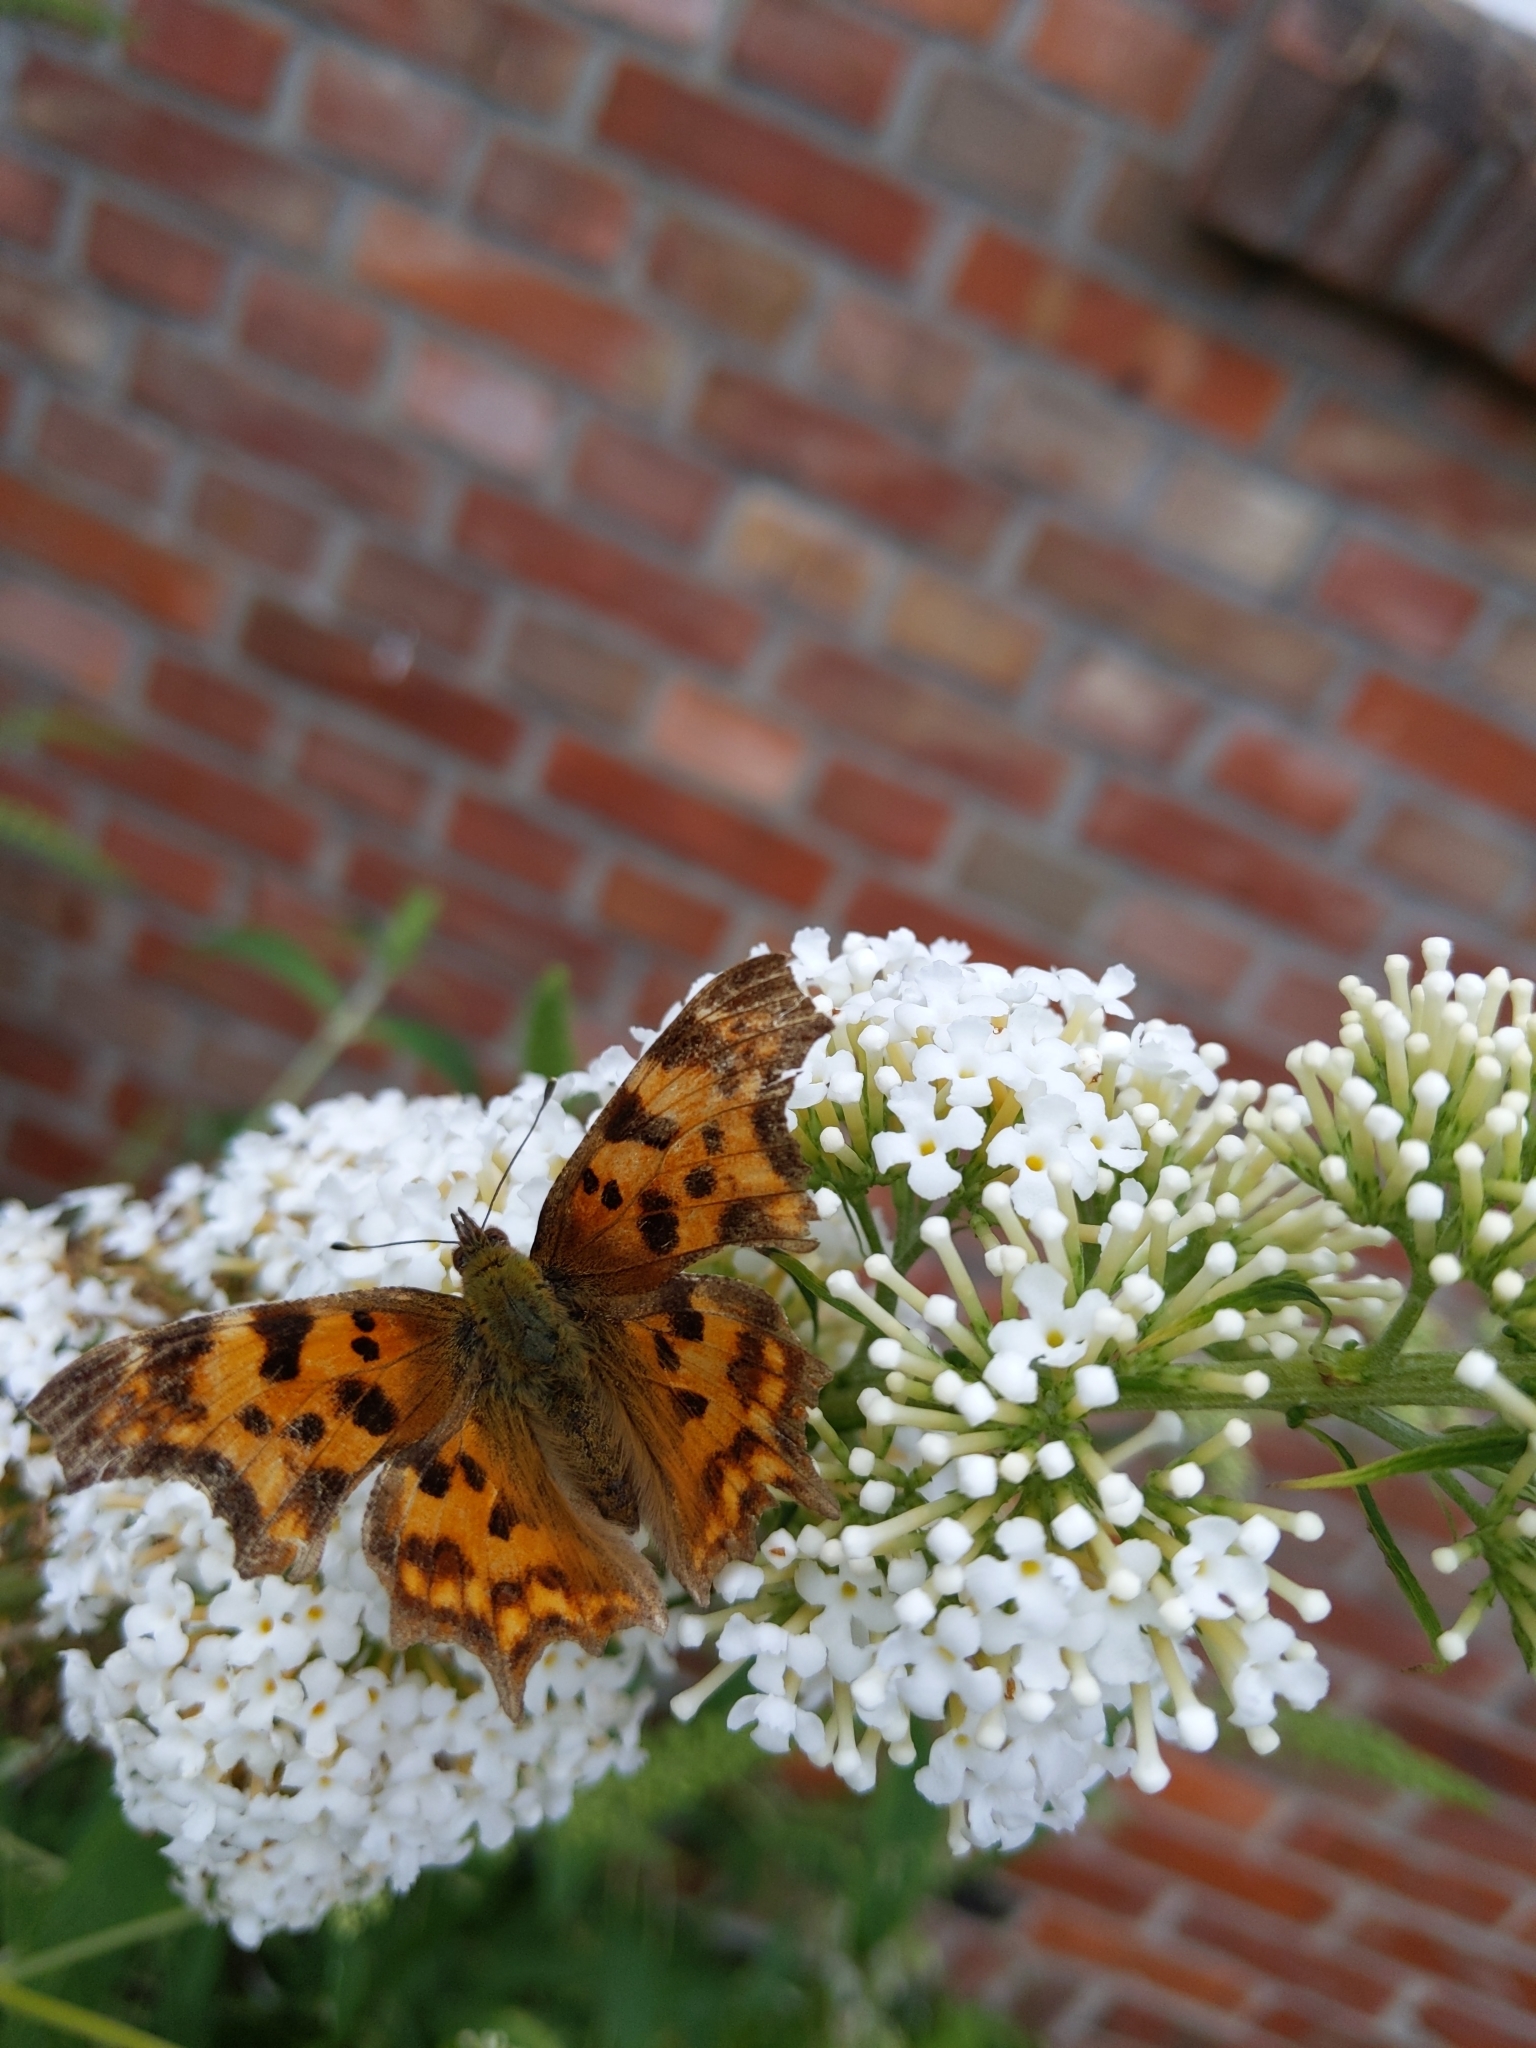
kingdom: Animalia
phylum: Arthropoda
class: Insecta
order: Lepidoptera
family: Nymphalidae
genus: Polygonia
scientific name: Polygonia c-album
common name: Comma
